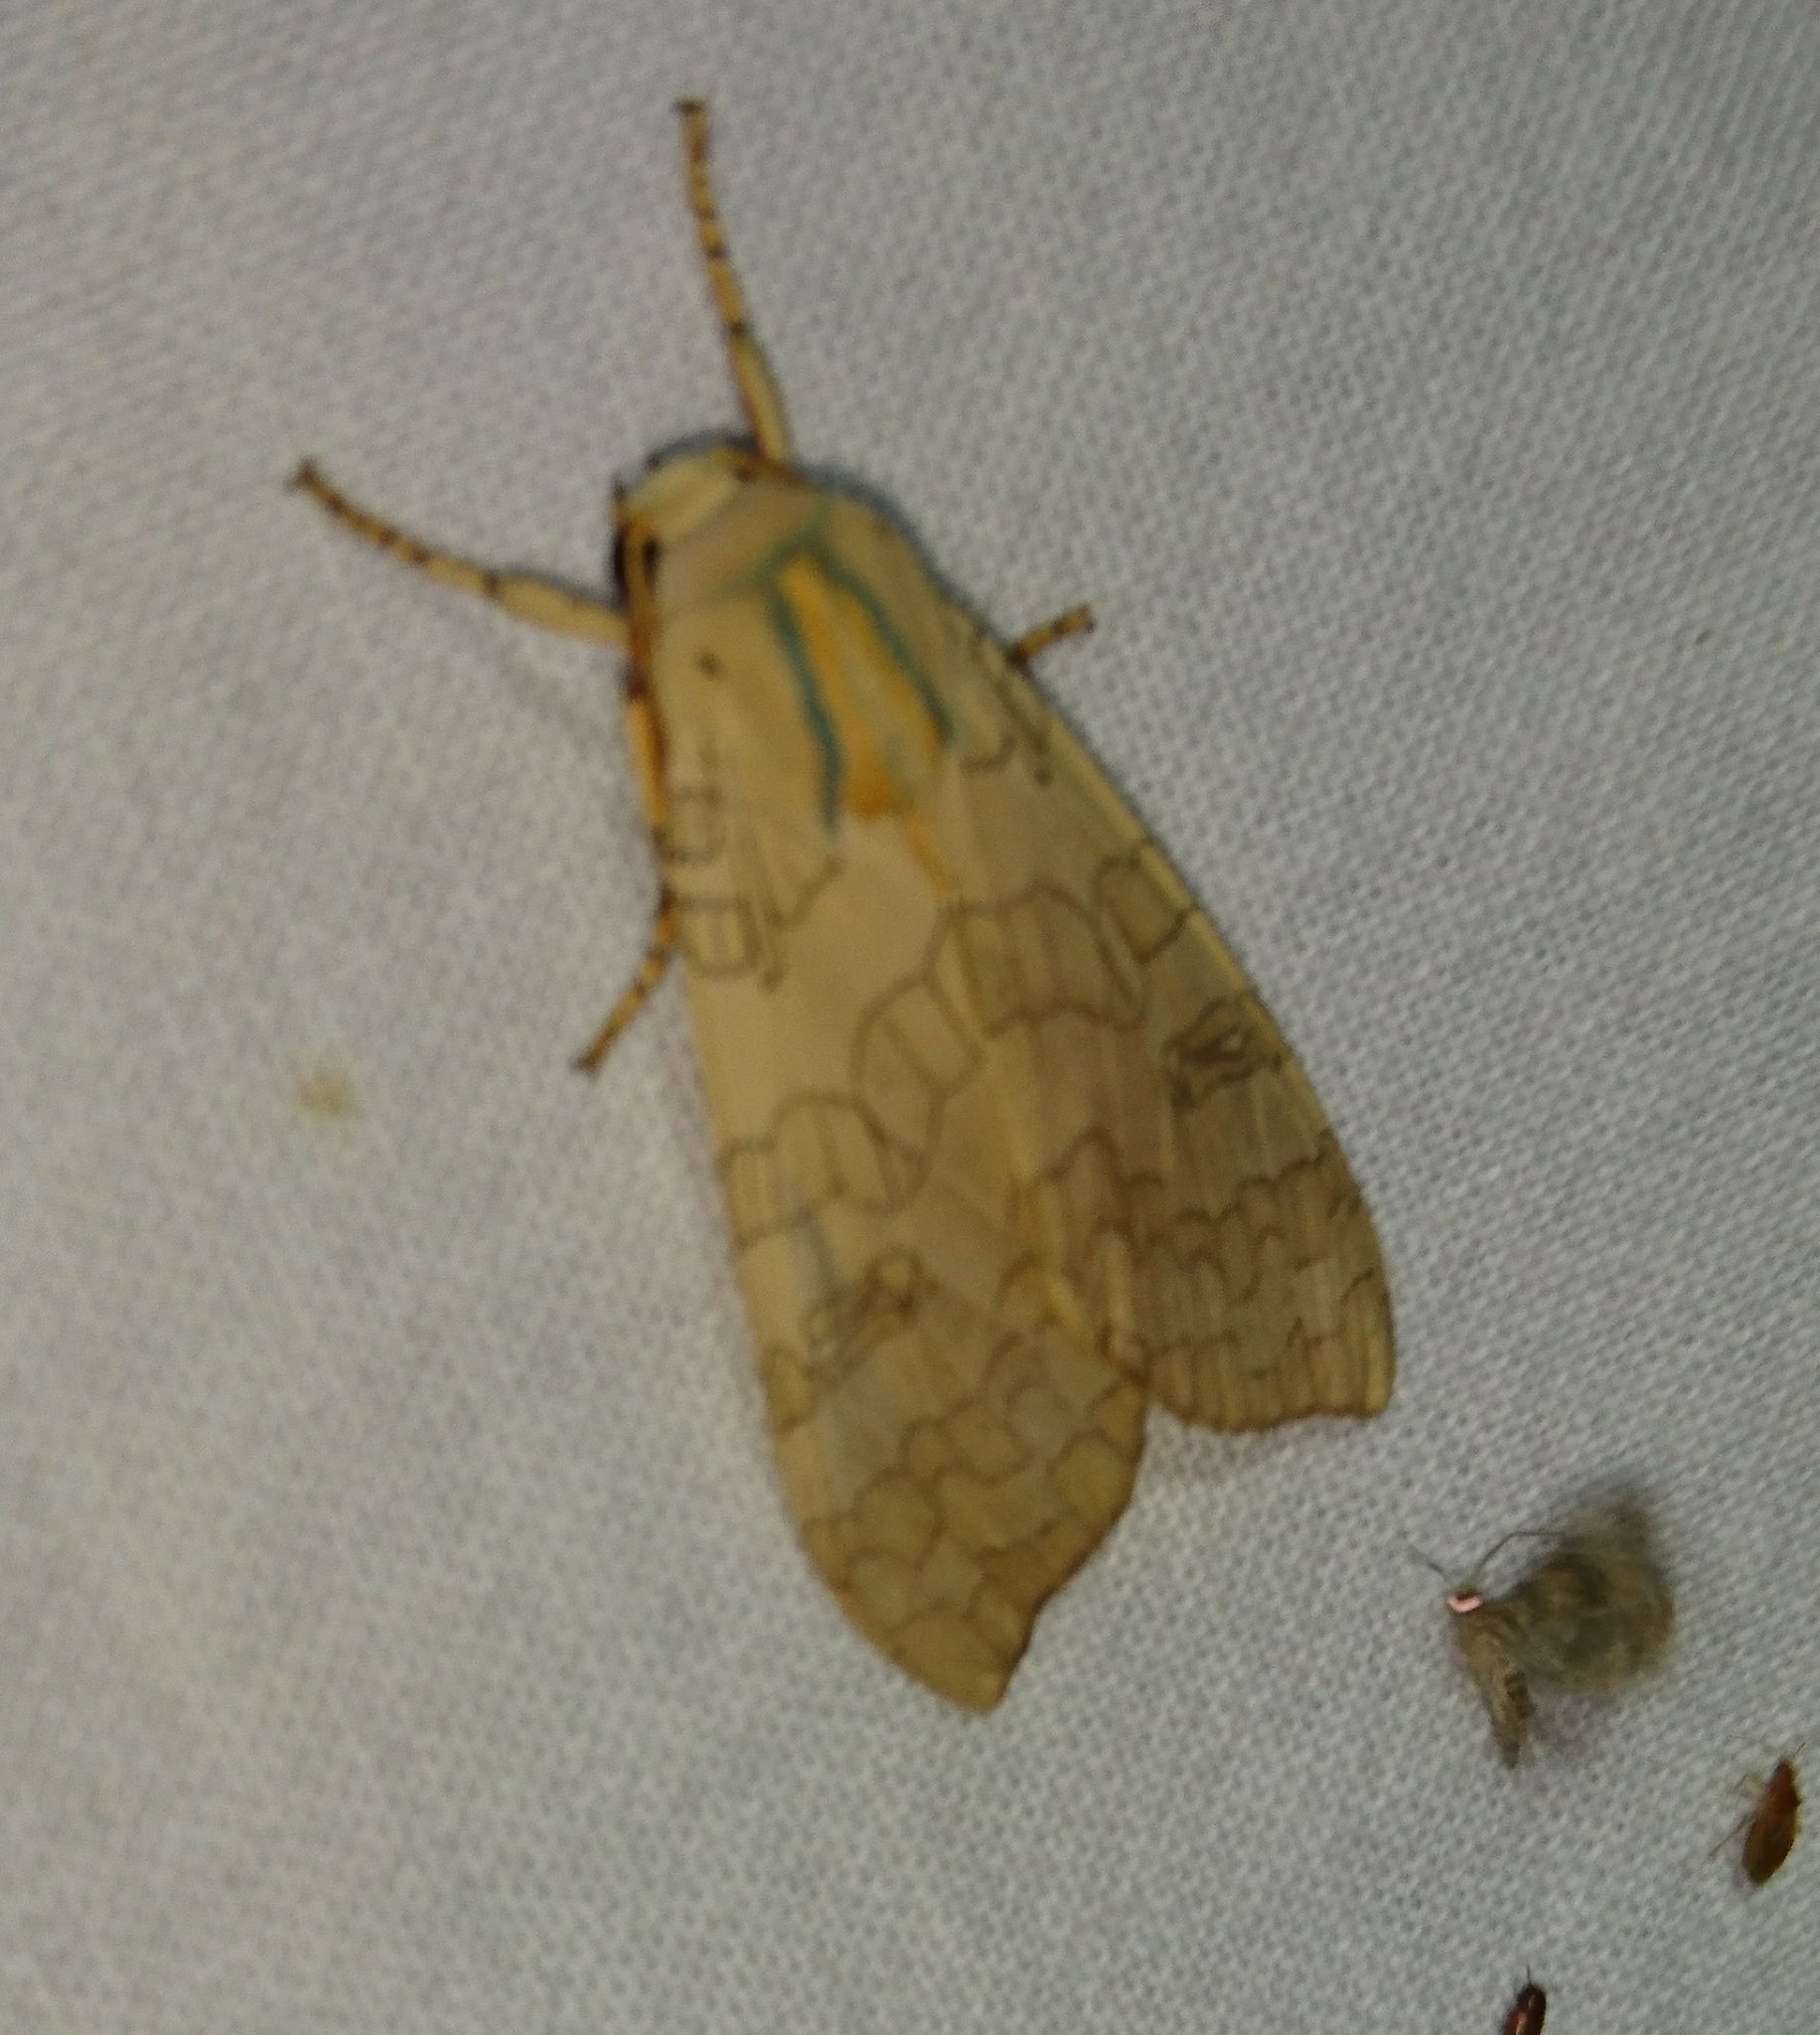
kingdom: Animalia
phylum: Arthropoda
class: Insecta
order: Lepidoptera
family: Erebidae
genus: Halysidota
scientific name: Halysidota
